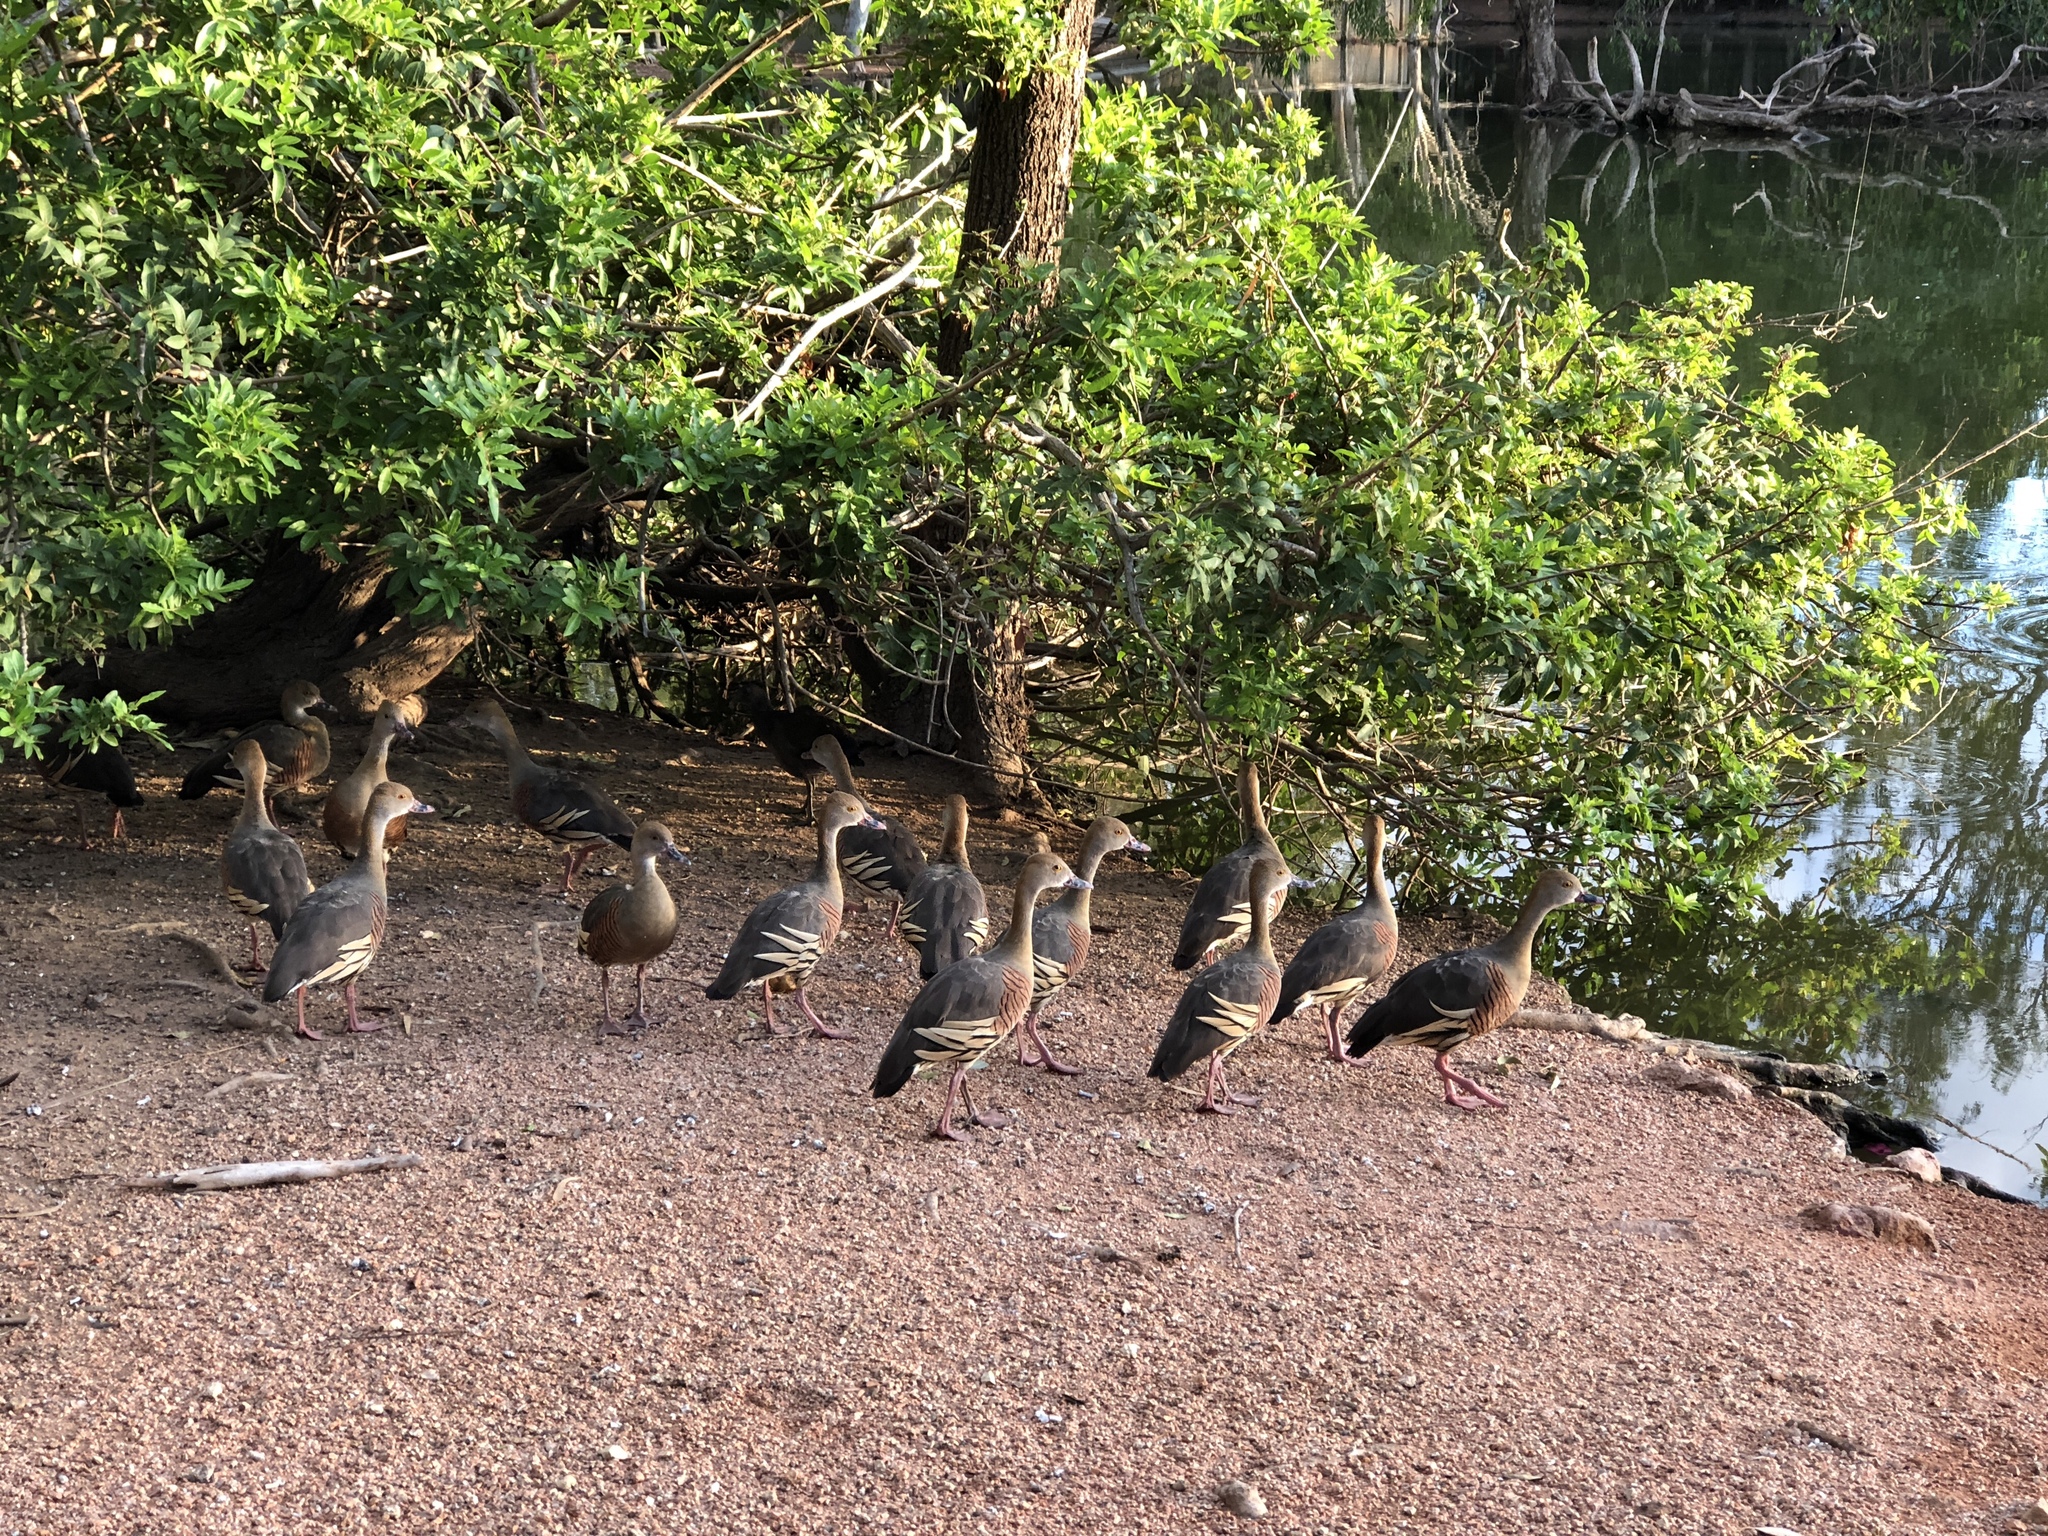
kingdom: Animalia
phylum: Chordata
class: Aves
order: Anseriformes
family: Anatidae
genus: Dendrocygna
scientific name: Dendrocygna eytoni
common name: Plumed whistling-duck
